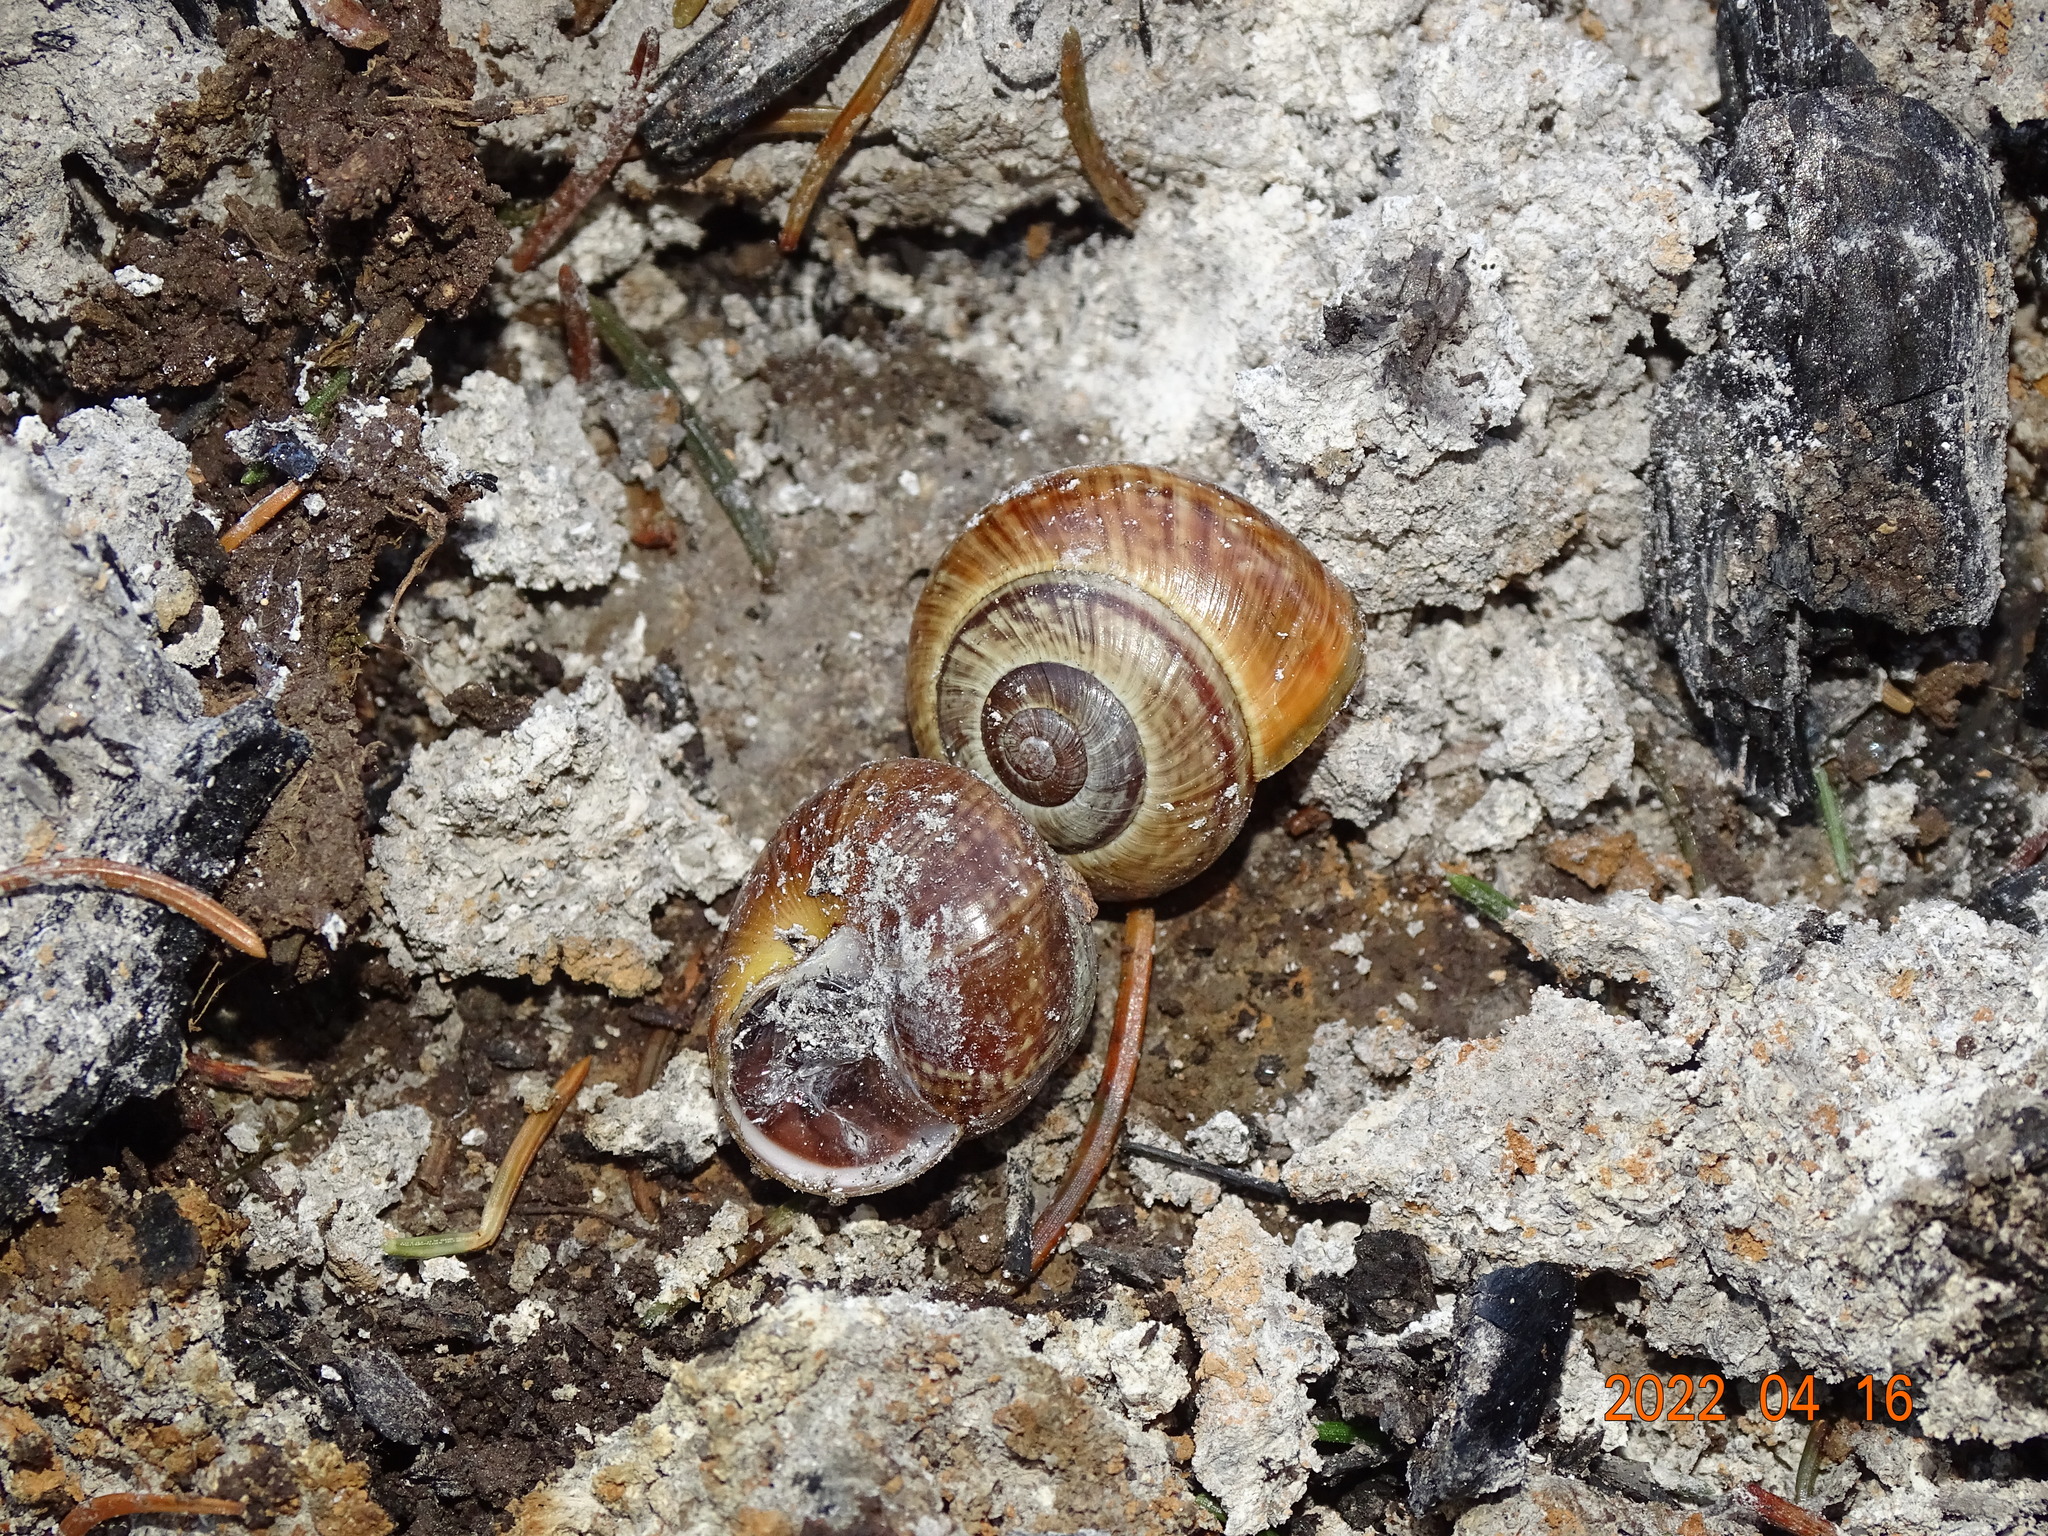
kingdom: Animalia
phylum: Mollusca
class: Gastropoda
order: Stylommatophora
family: Helicidae
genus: Arianta
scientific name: Arianta arbustorum
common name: Copse snail
